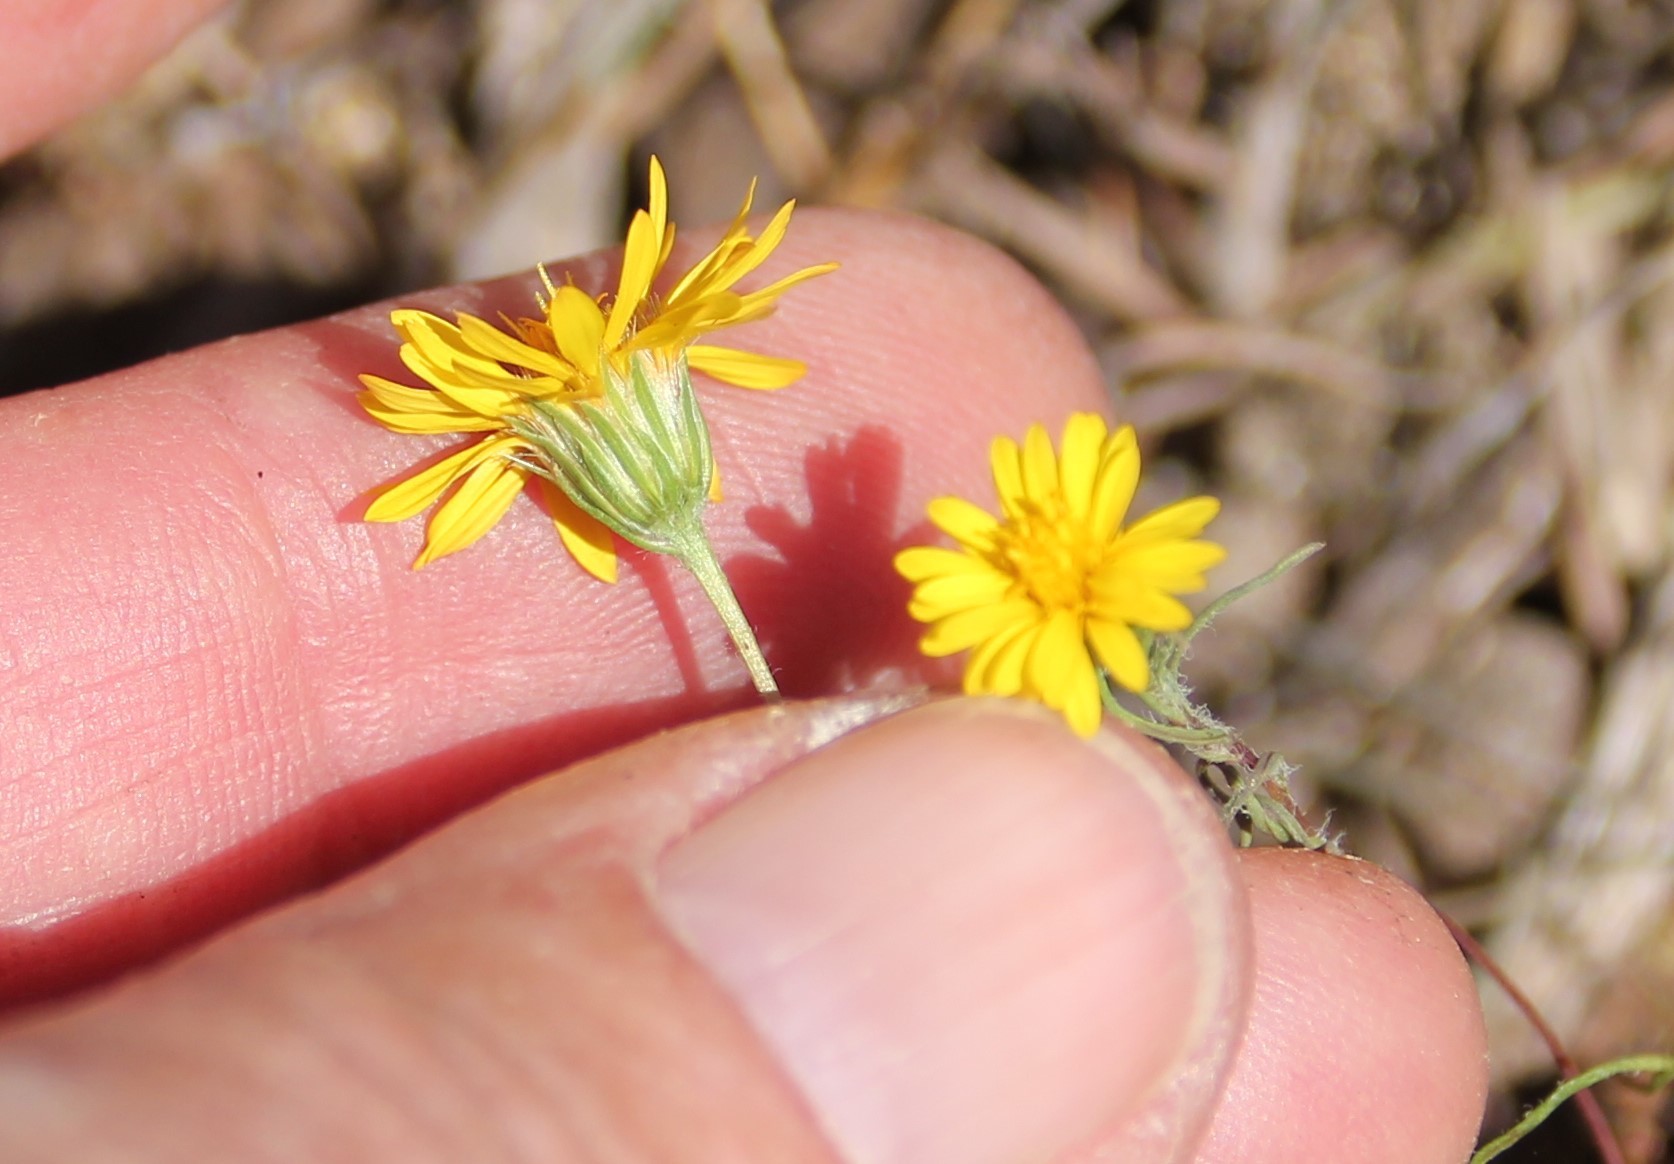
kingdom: Plantae
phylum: Tracheophyta
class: Magnoliopsida
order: Asterales
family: Asteraceae
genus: Pentachaeta
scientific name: Pentachaeta aurea
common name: Golden-ray pentachaeta
